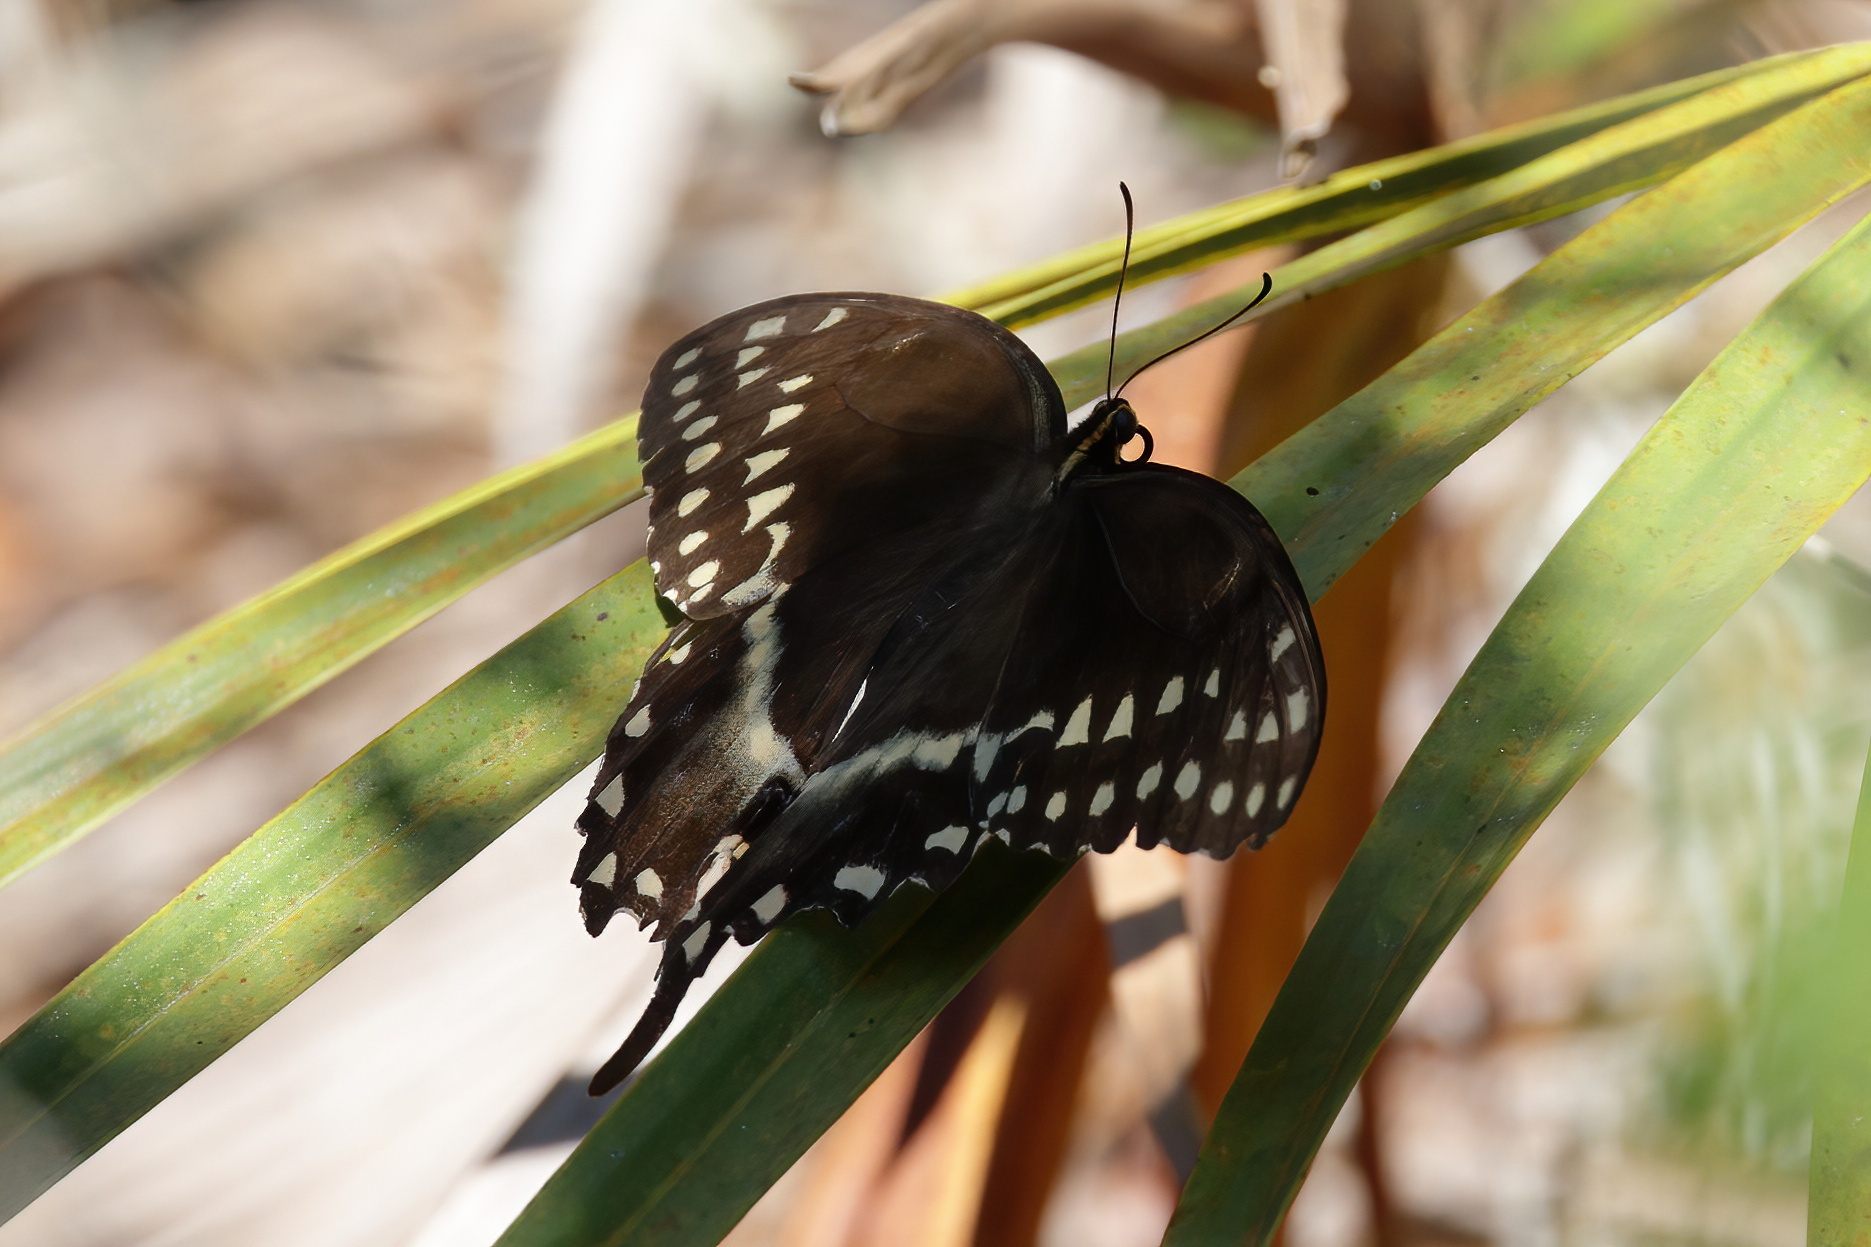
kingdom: Animalia
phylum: Arthropoda
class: Insecta
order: Lepidoptera
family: Papilionidae
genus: Papilio
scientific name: Papilio palamedes
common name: Palamedes swallowtail
